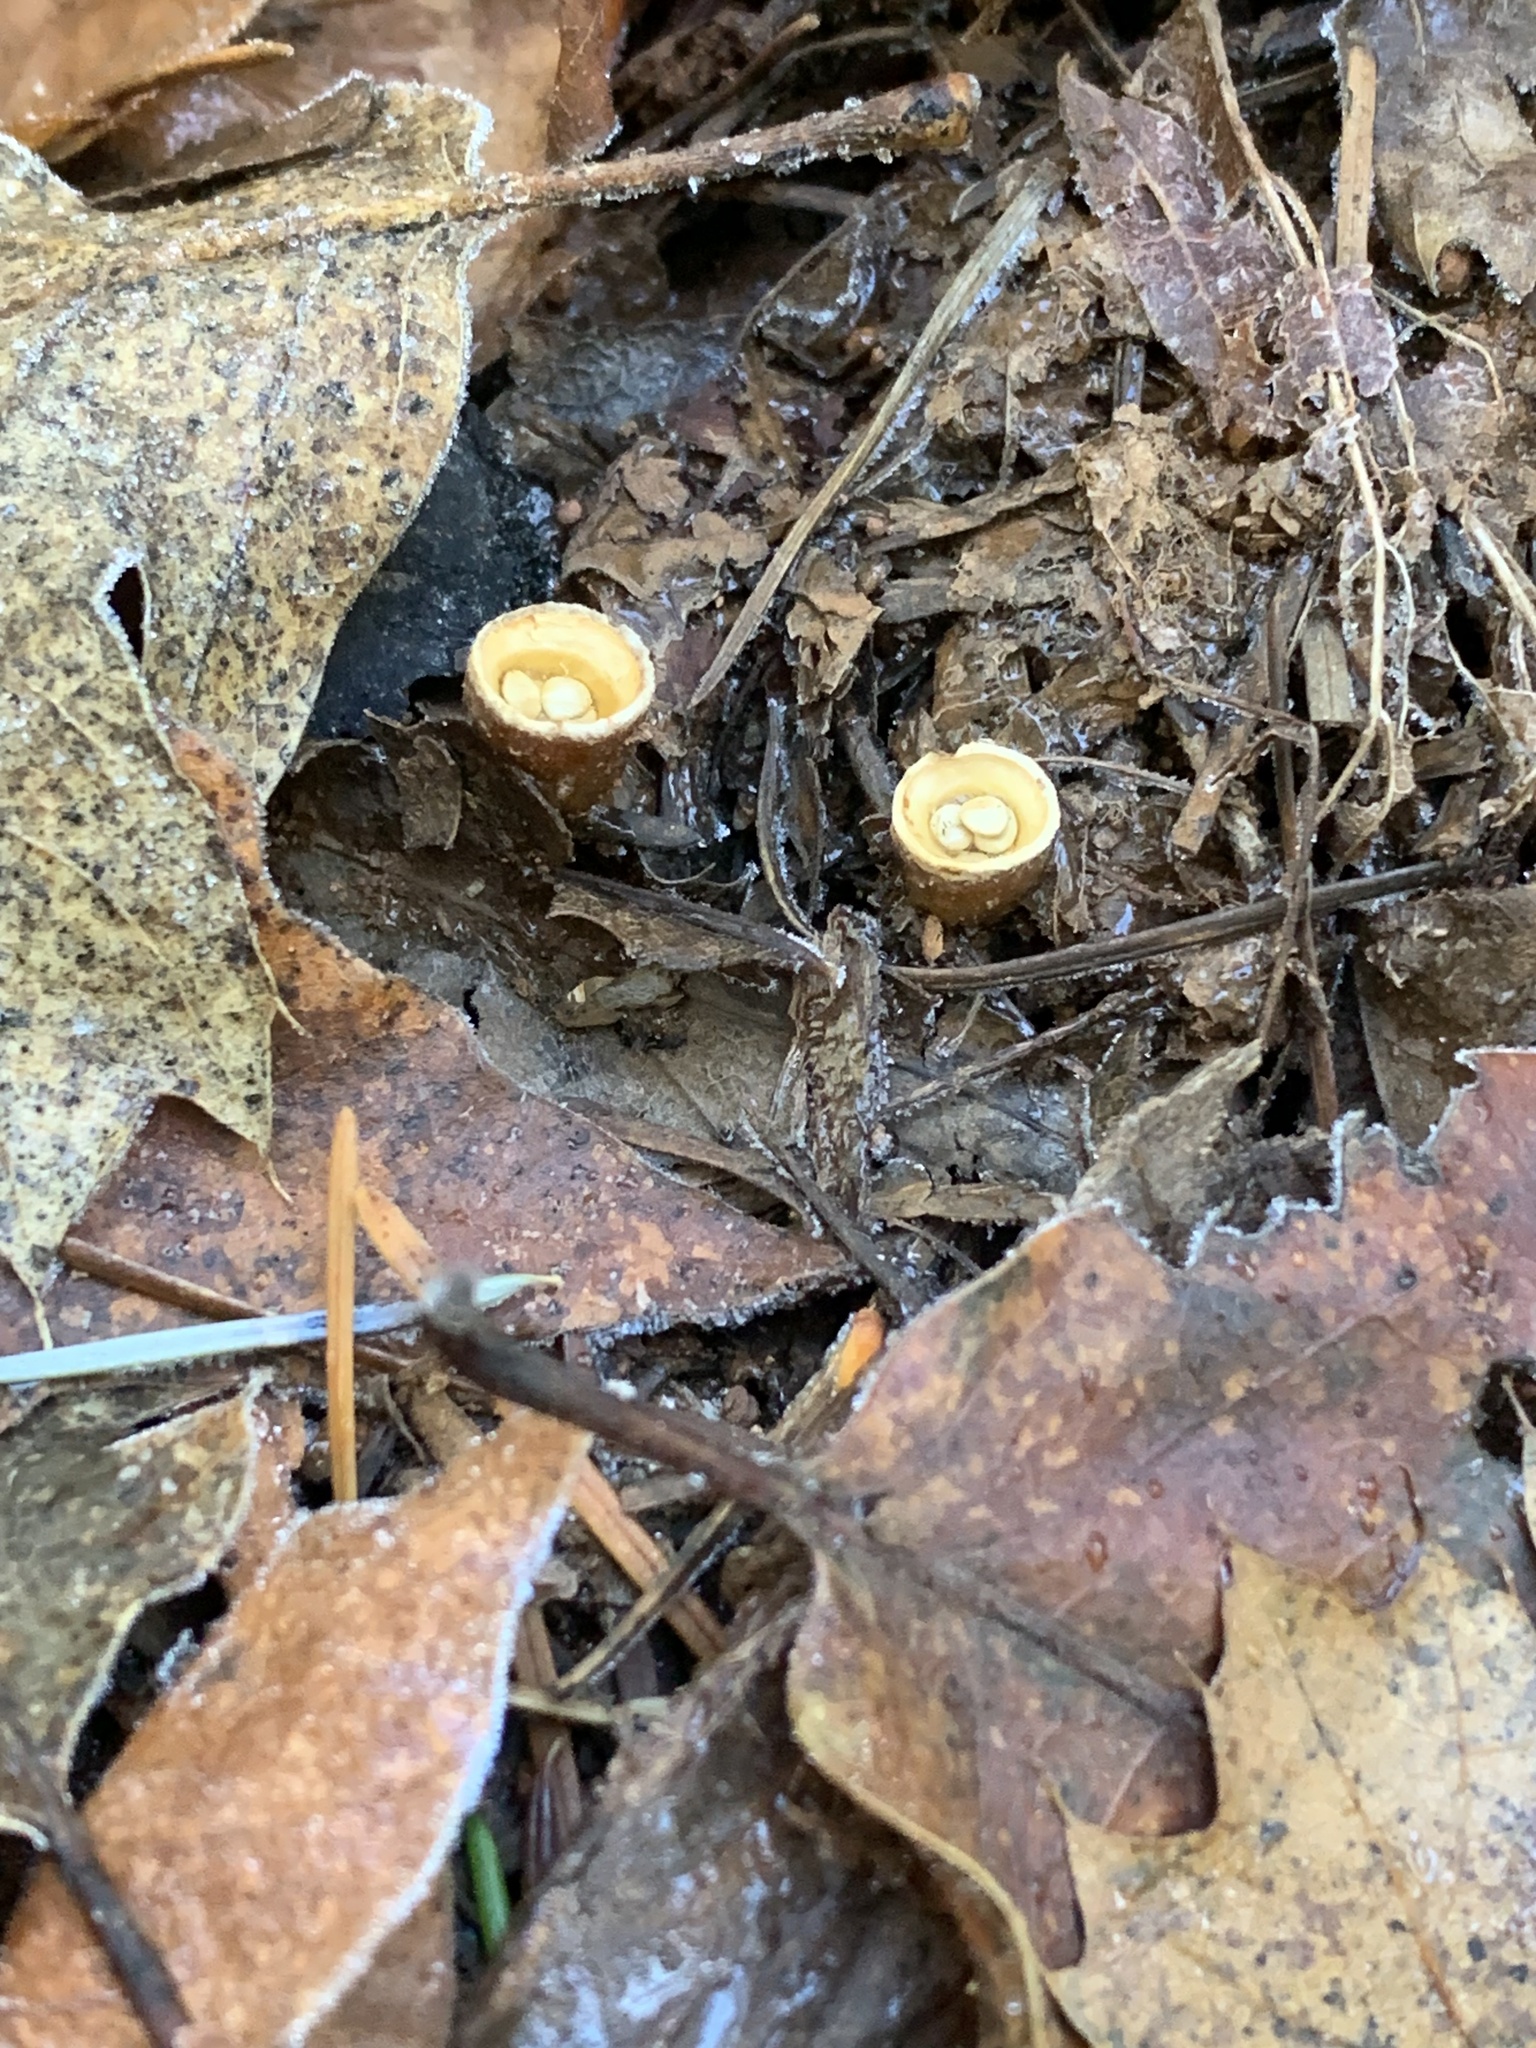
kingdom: Fungi
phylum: Basidiomycota
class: Agaricomycetes
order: Agaricales
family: Nidulariaceae
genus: Crucibulum
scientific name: Crucibulum laeve
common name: Common bird's nest
